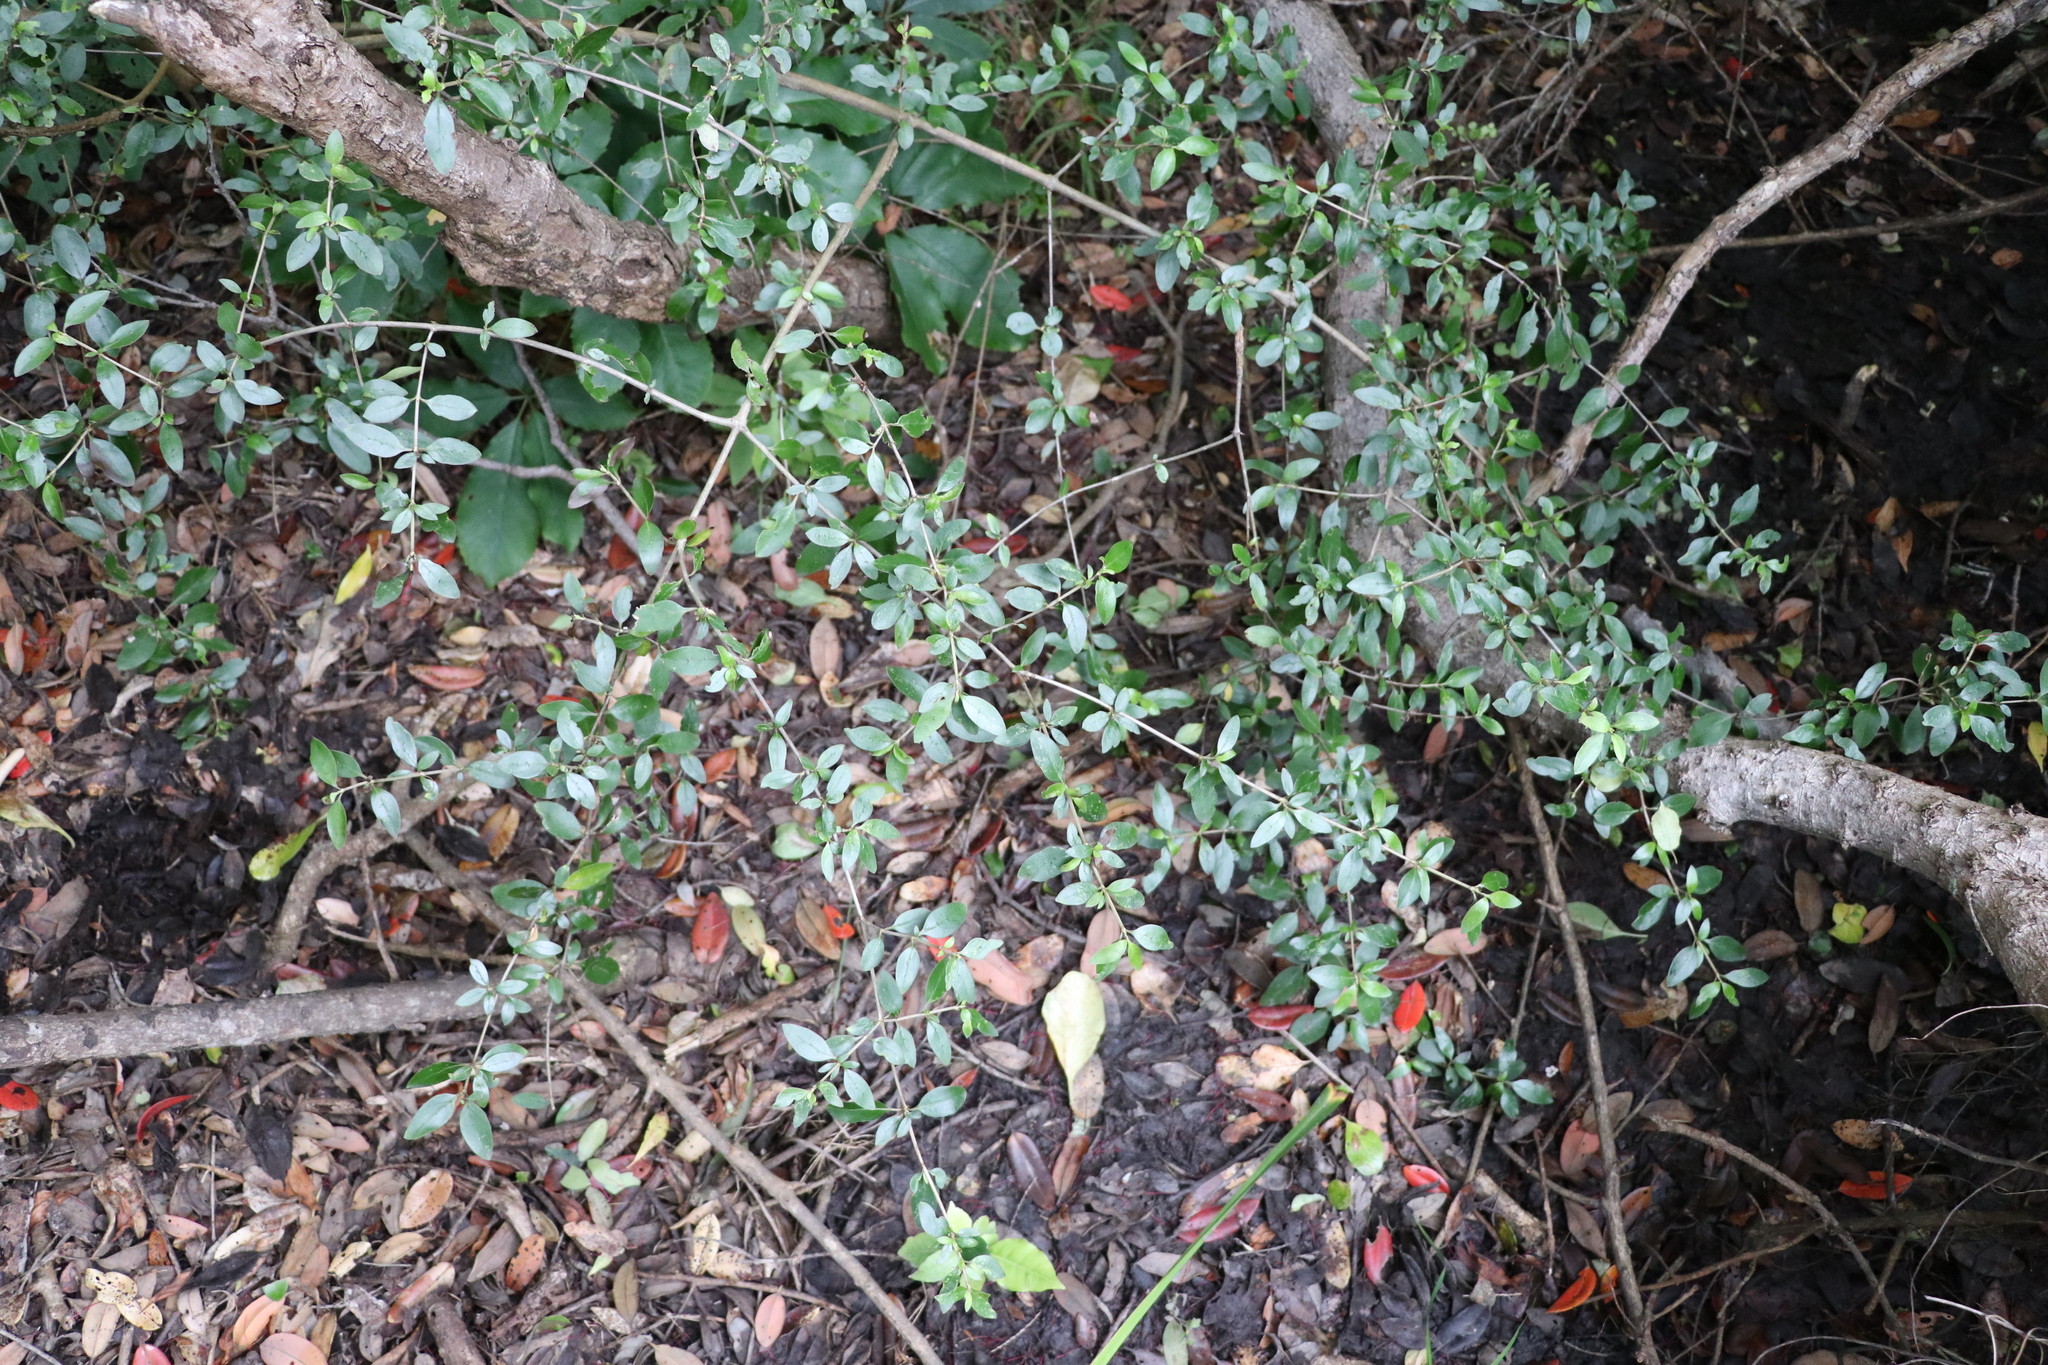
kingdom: Plantae
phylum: Tracheophyta
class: Magnoliopsida
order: Gentianales
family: Rubiaceae
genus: Coprosma
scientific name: Coprosma cunninghamii
